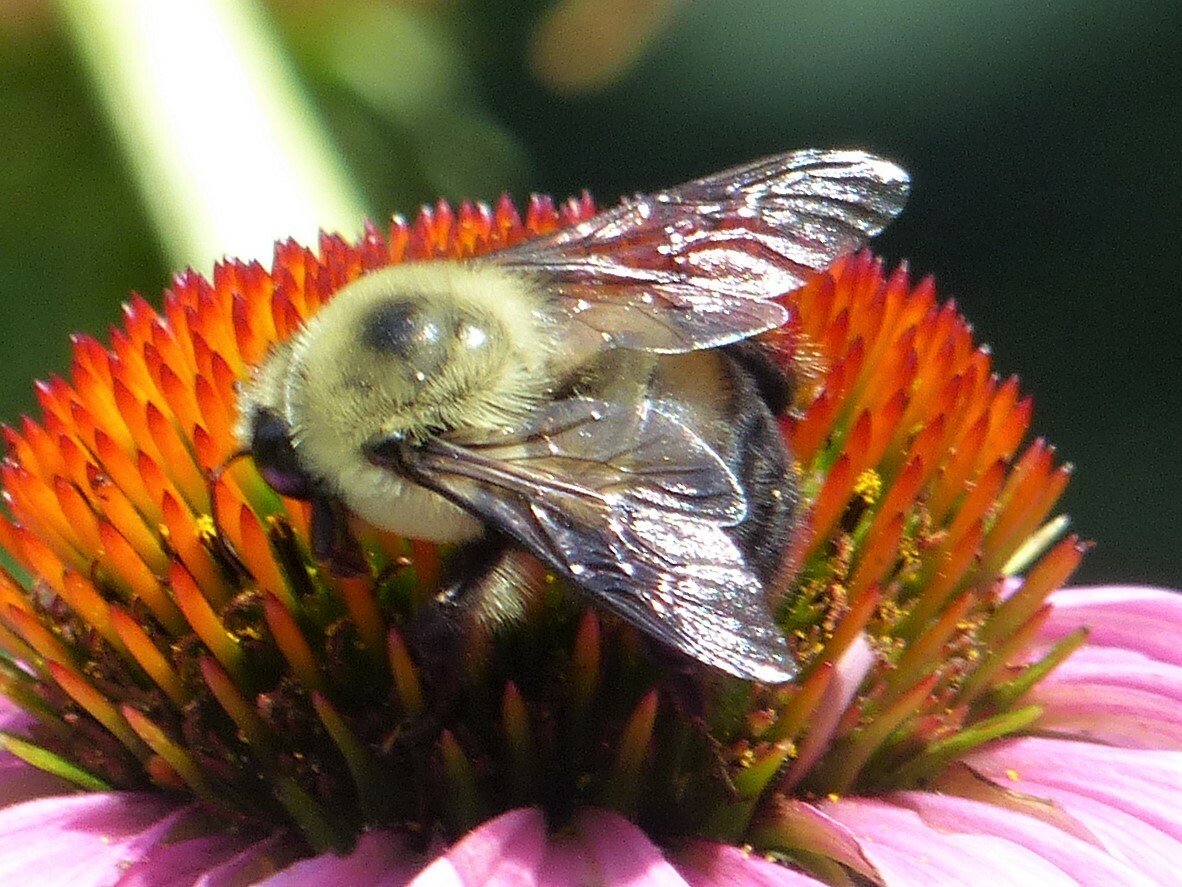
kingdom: Animalia
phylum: Arthropoda
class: Insecta
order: Hymenoptera
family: Apidae
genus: Bombus
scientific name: Bombus griseocollis
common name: Brown-belted bumble bee
